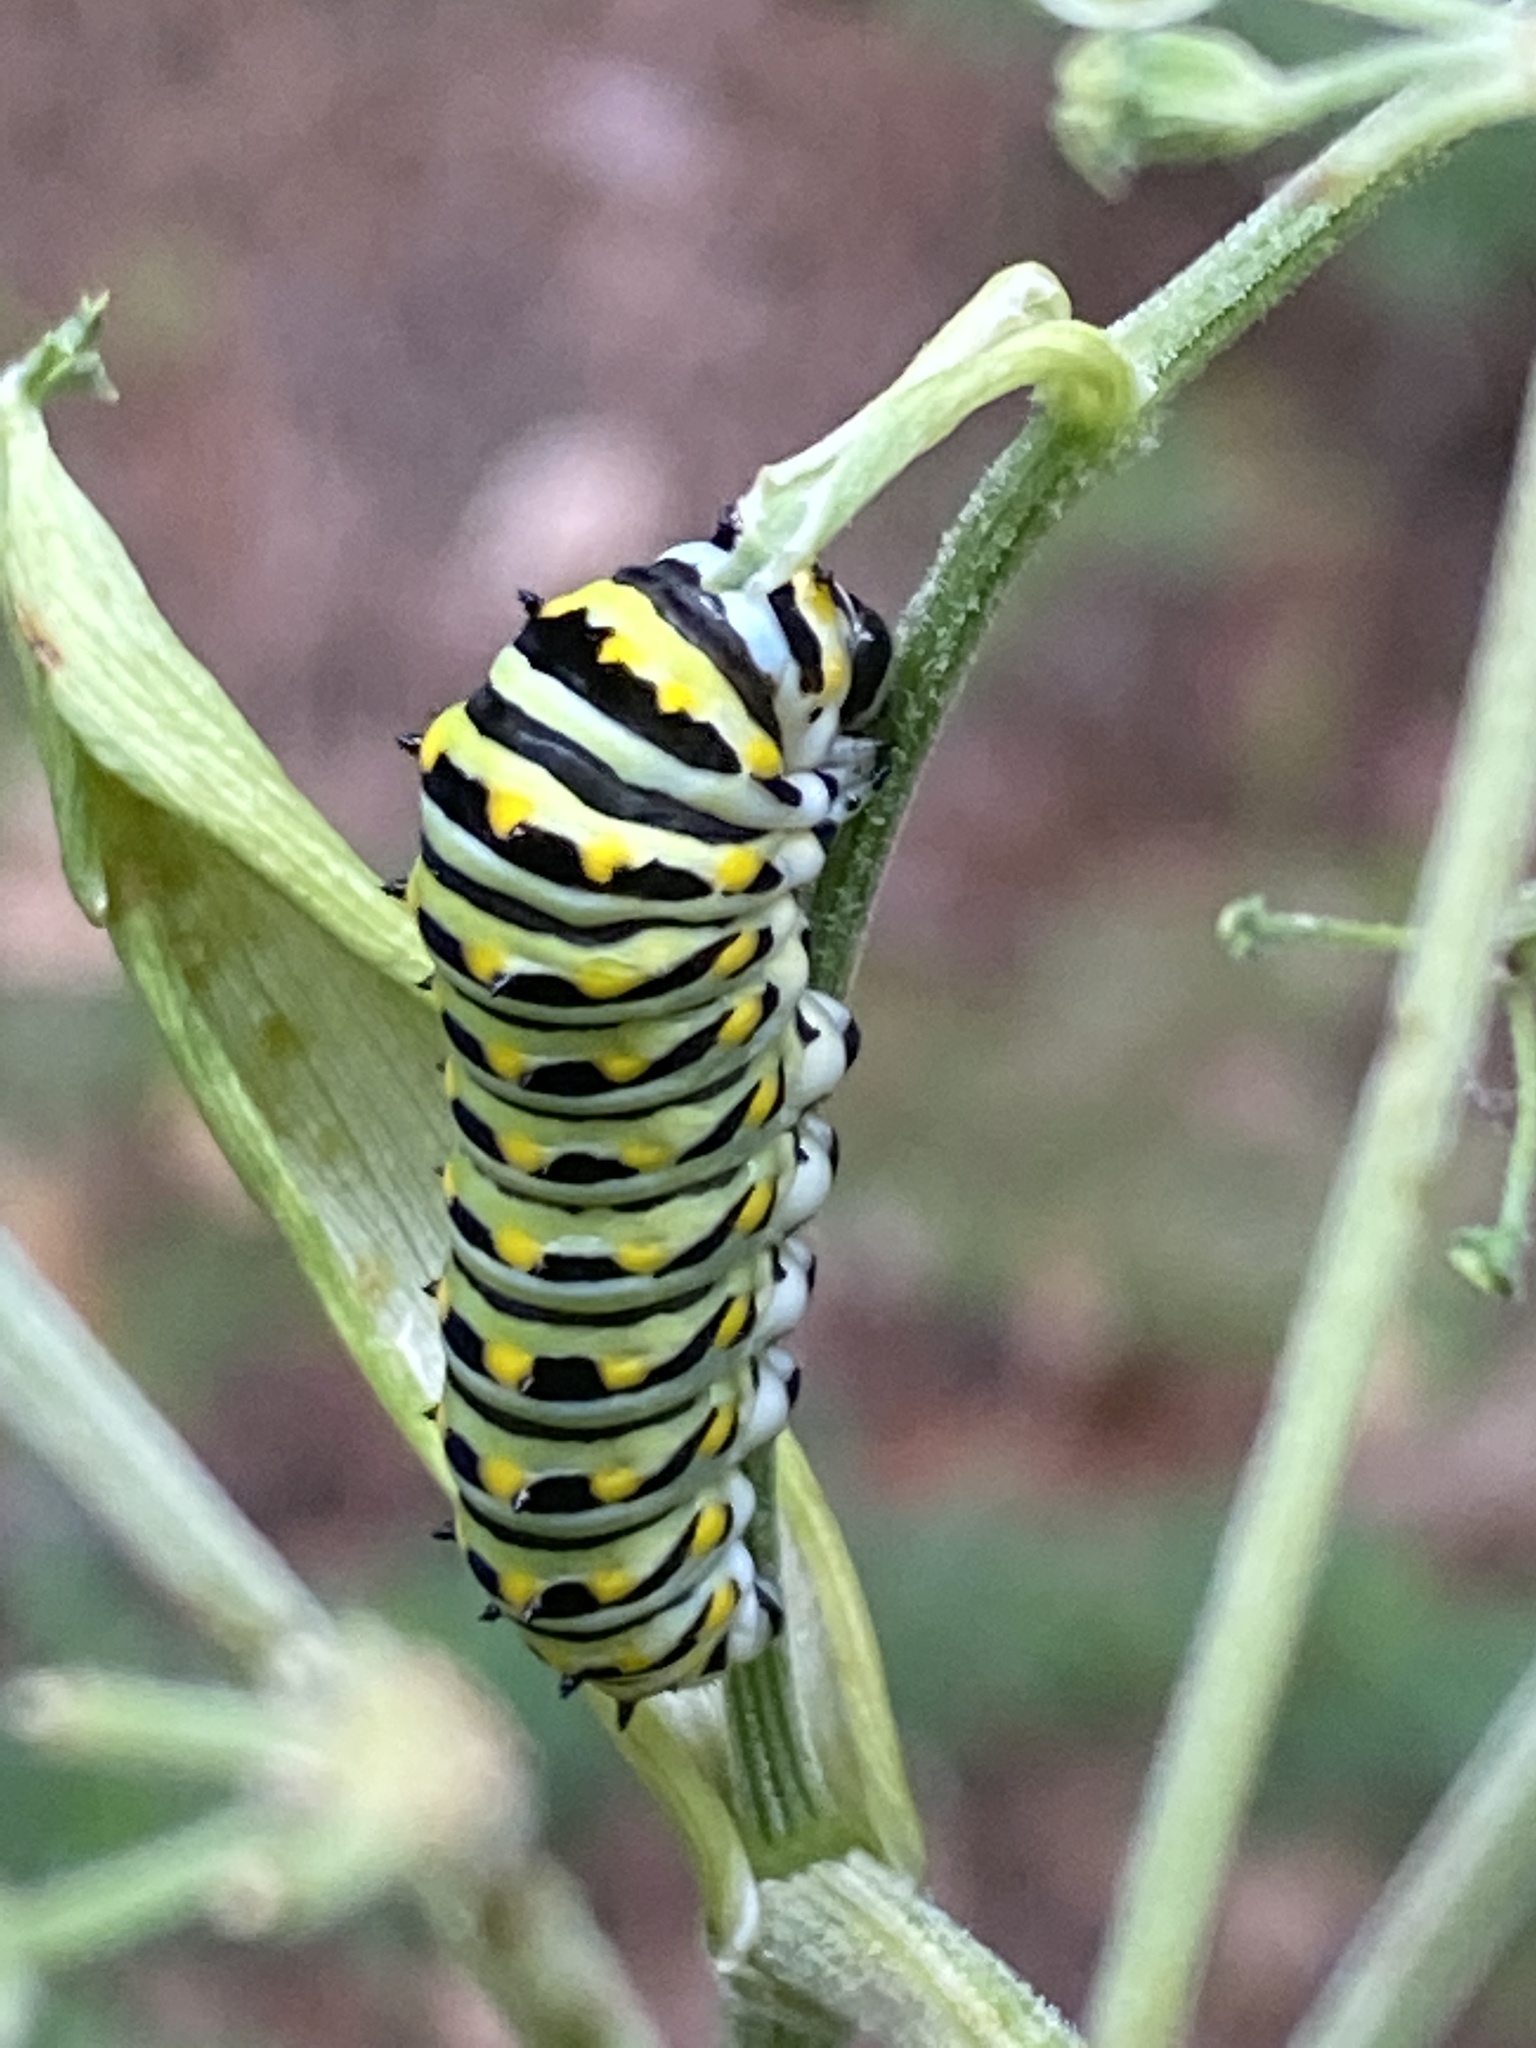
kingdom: Animalia
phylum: Arthropoda
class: Insecta
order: Lepidoptera
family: Papilionidae
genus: Papilio
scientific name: Papilio polyxenes
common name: Black swallowtail
